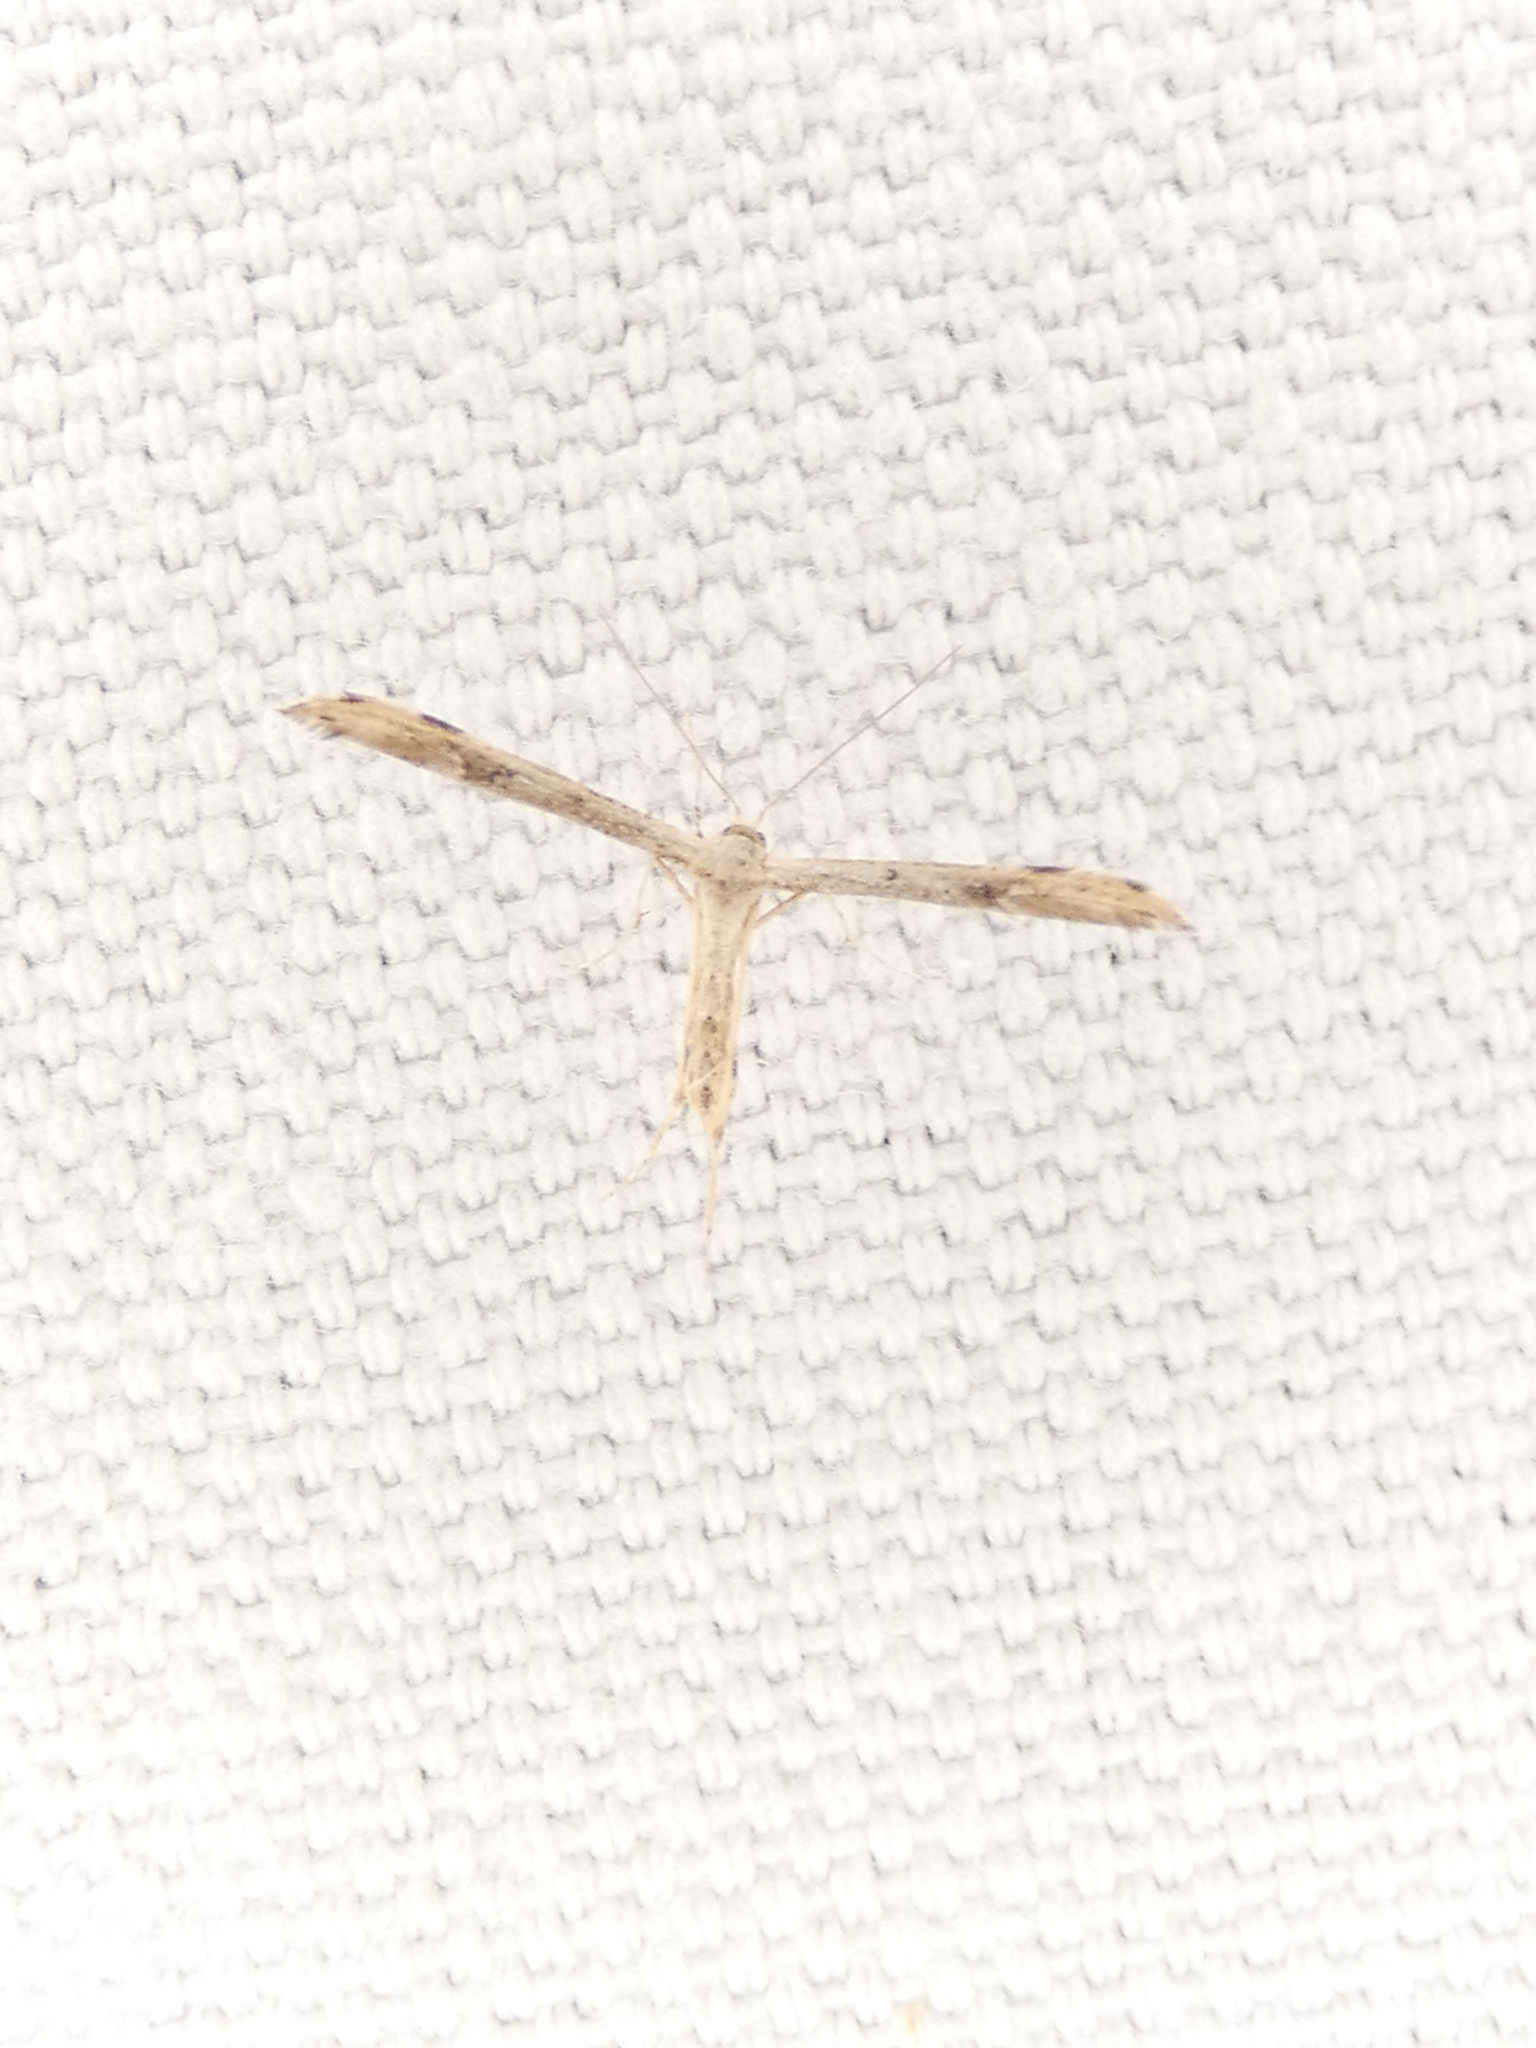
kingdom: Animalia
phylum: Arthropoda
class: Insecta
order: Lepidoptera
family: Pterophoridae
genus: Adaina
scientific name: Adaina ambrosiae
